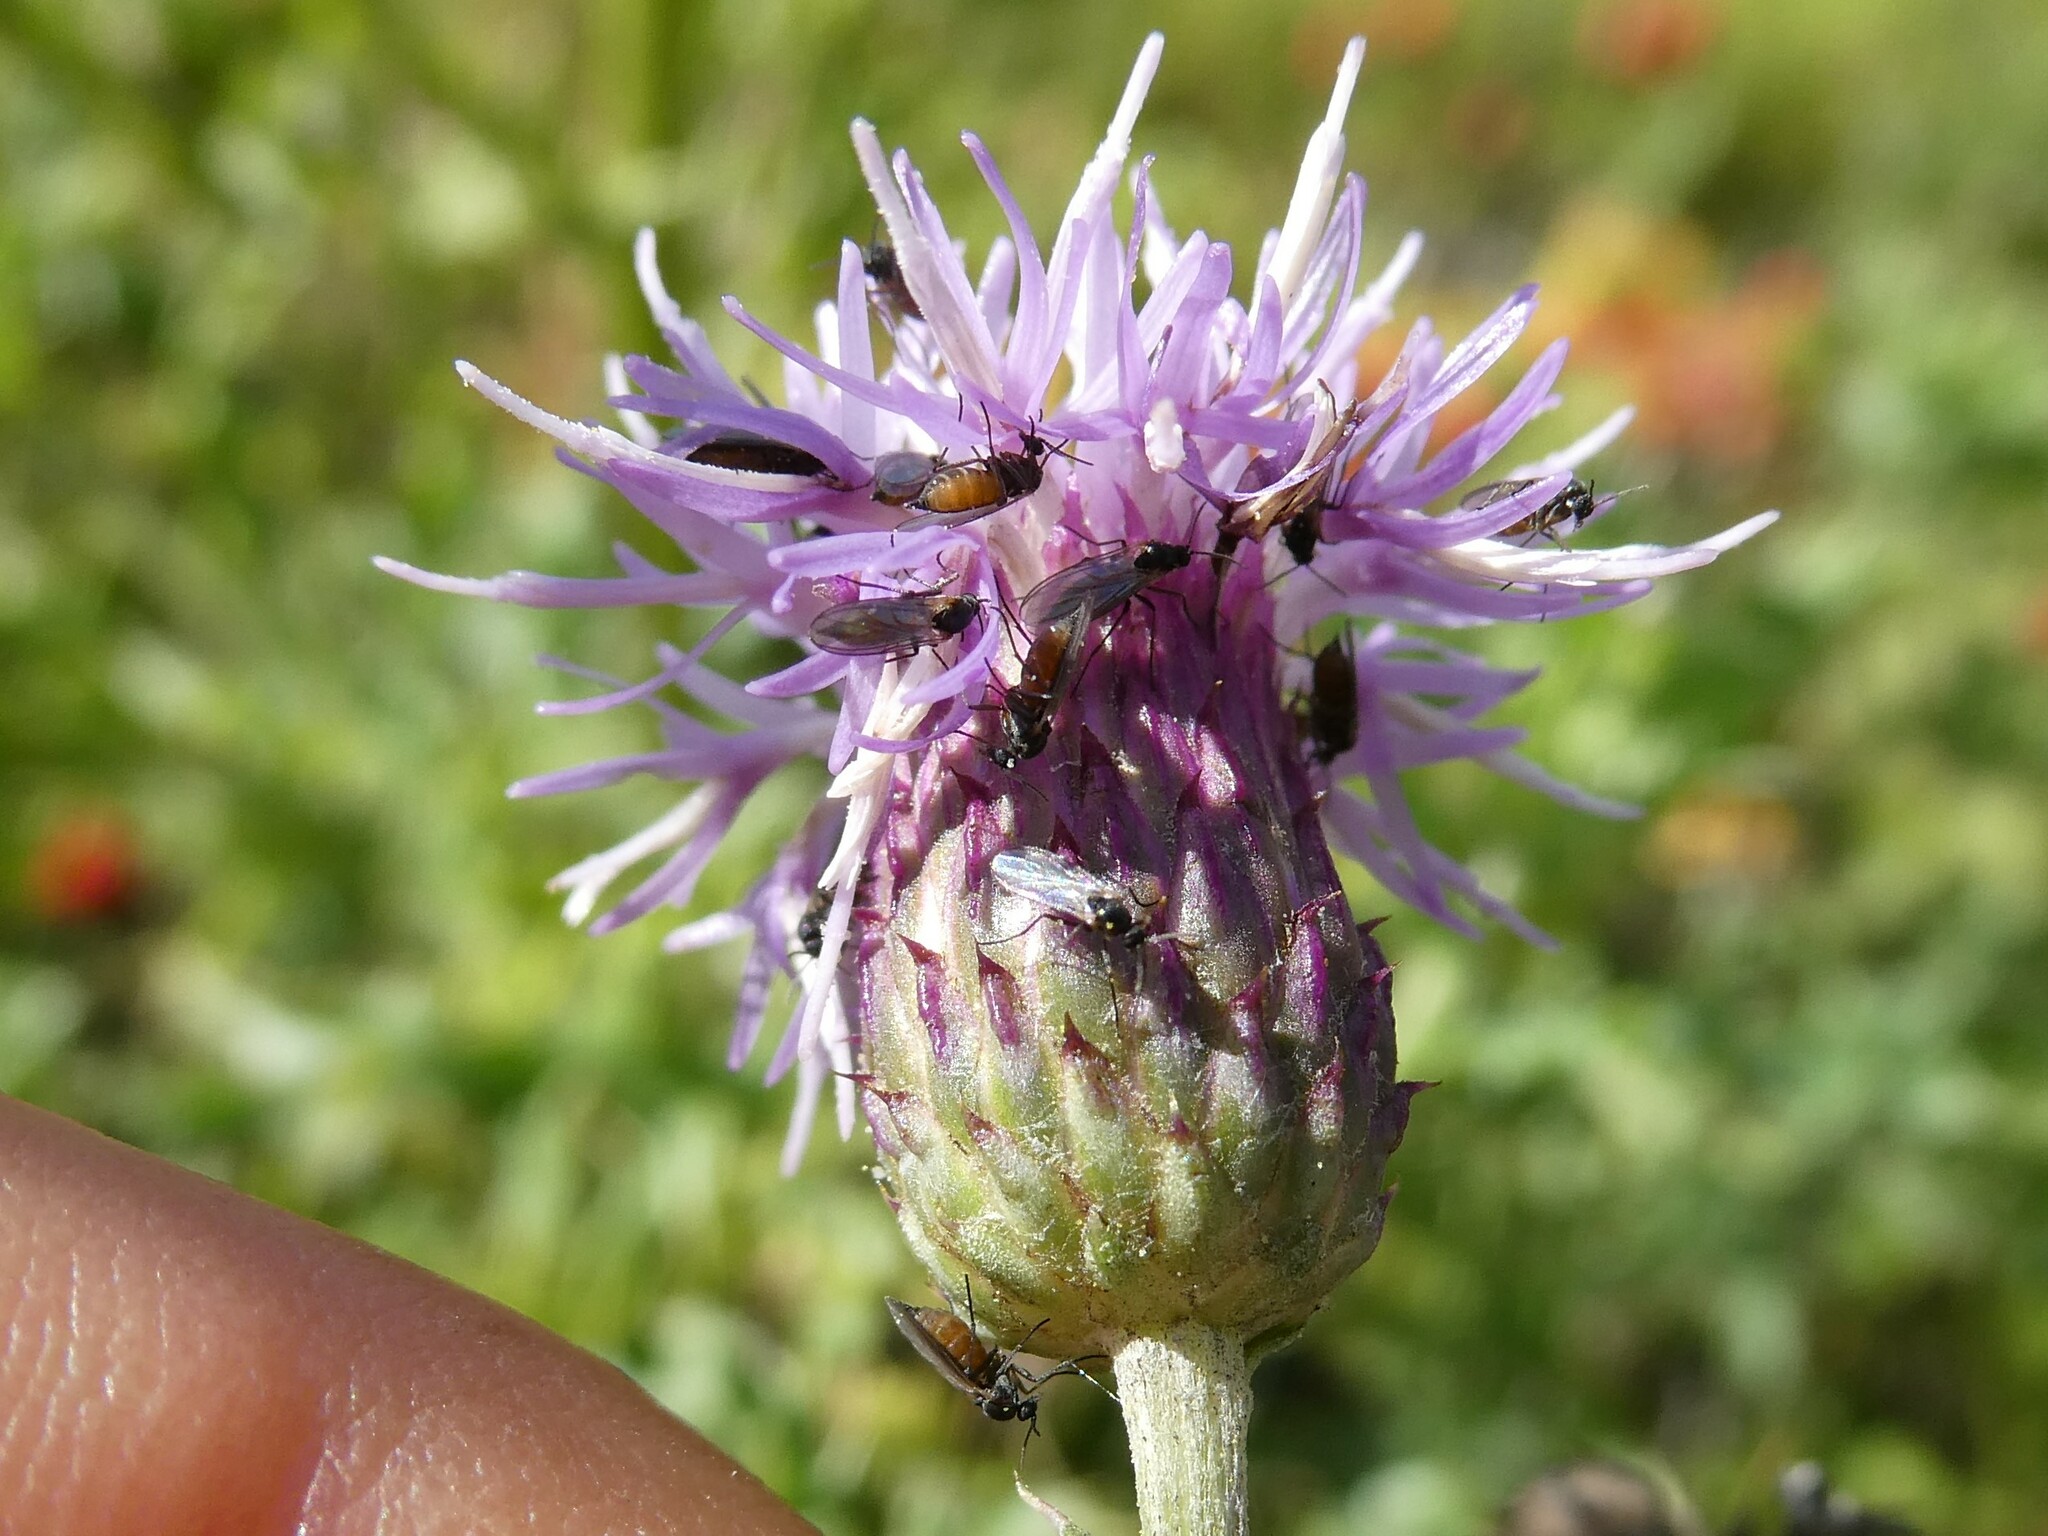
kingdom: Plantae
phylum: Tracheophyta
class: Magnoliopsida
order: Asterales
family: Asteraceae
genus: Cirsium
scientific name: Cirsium arvense
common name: Creeping thistle
